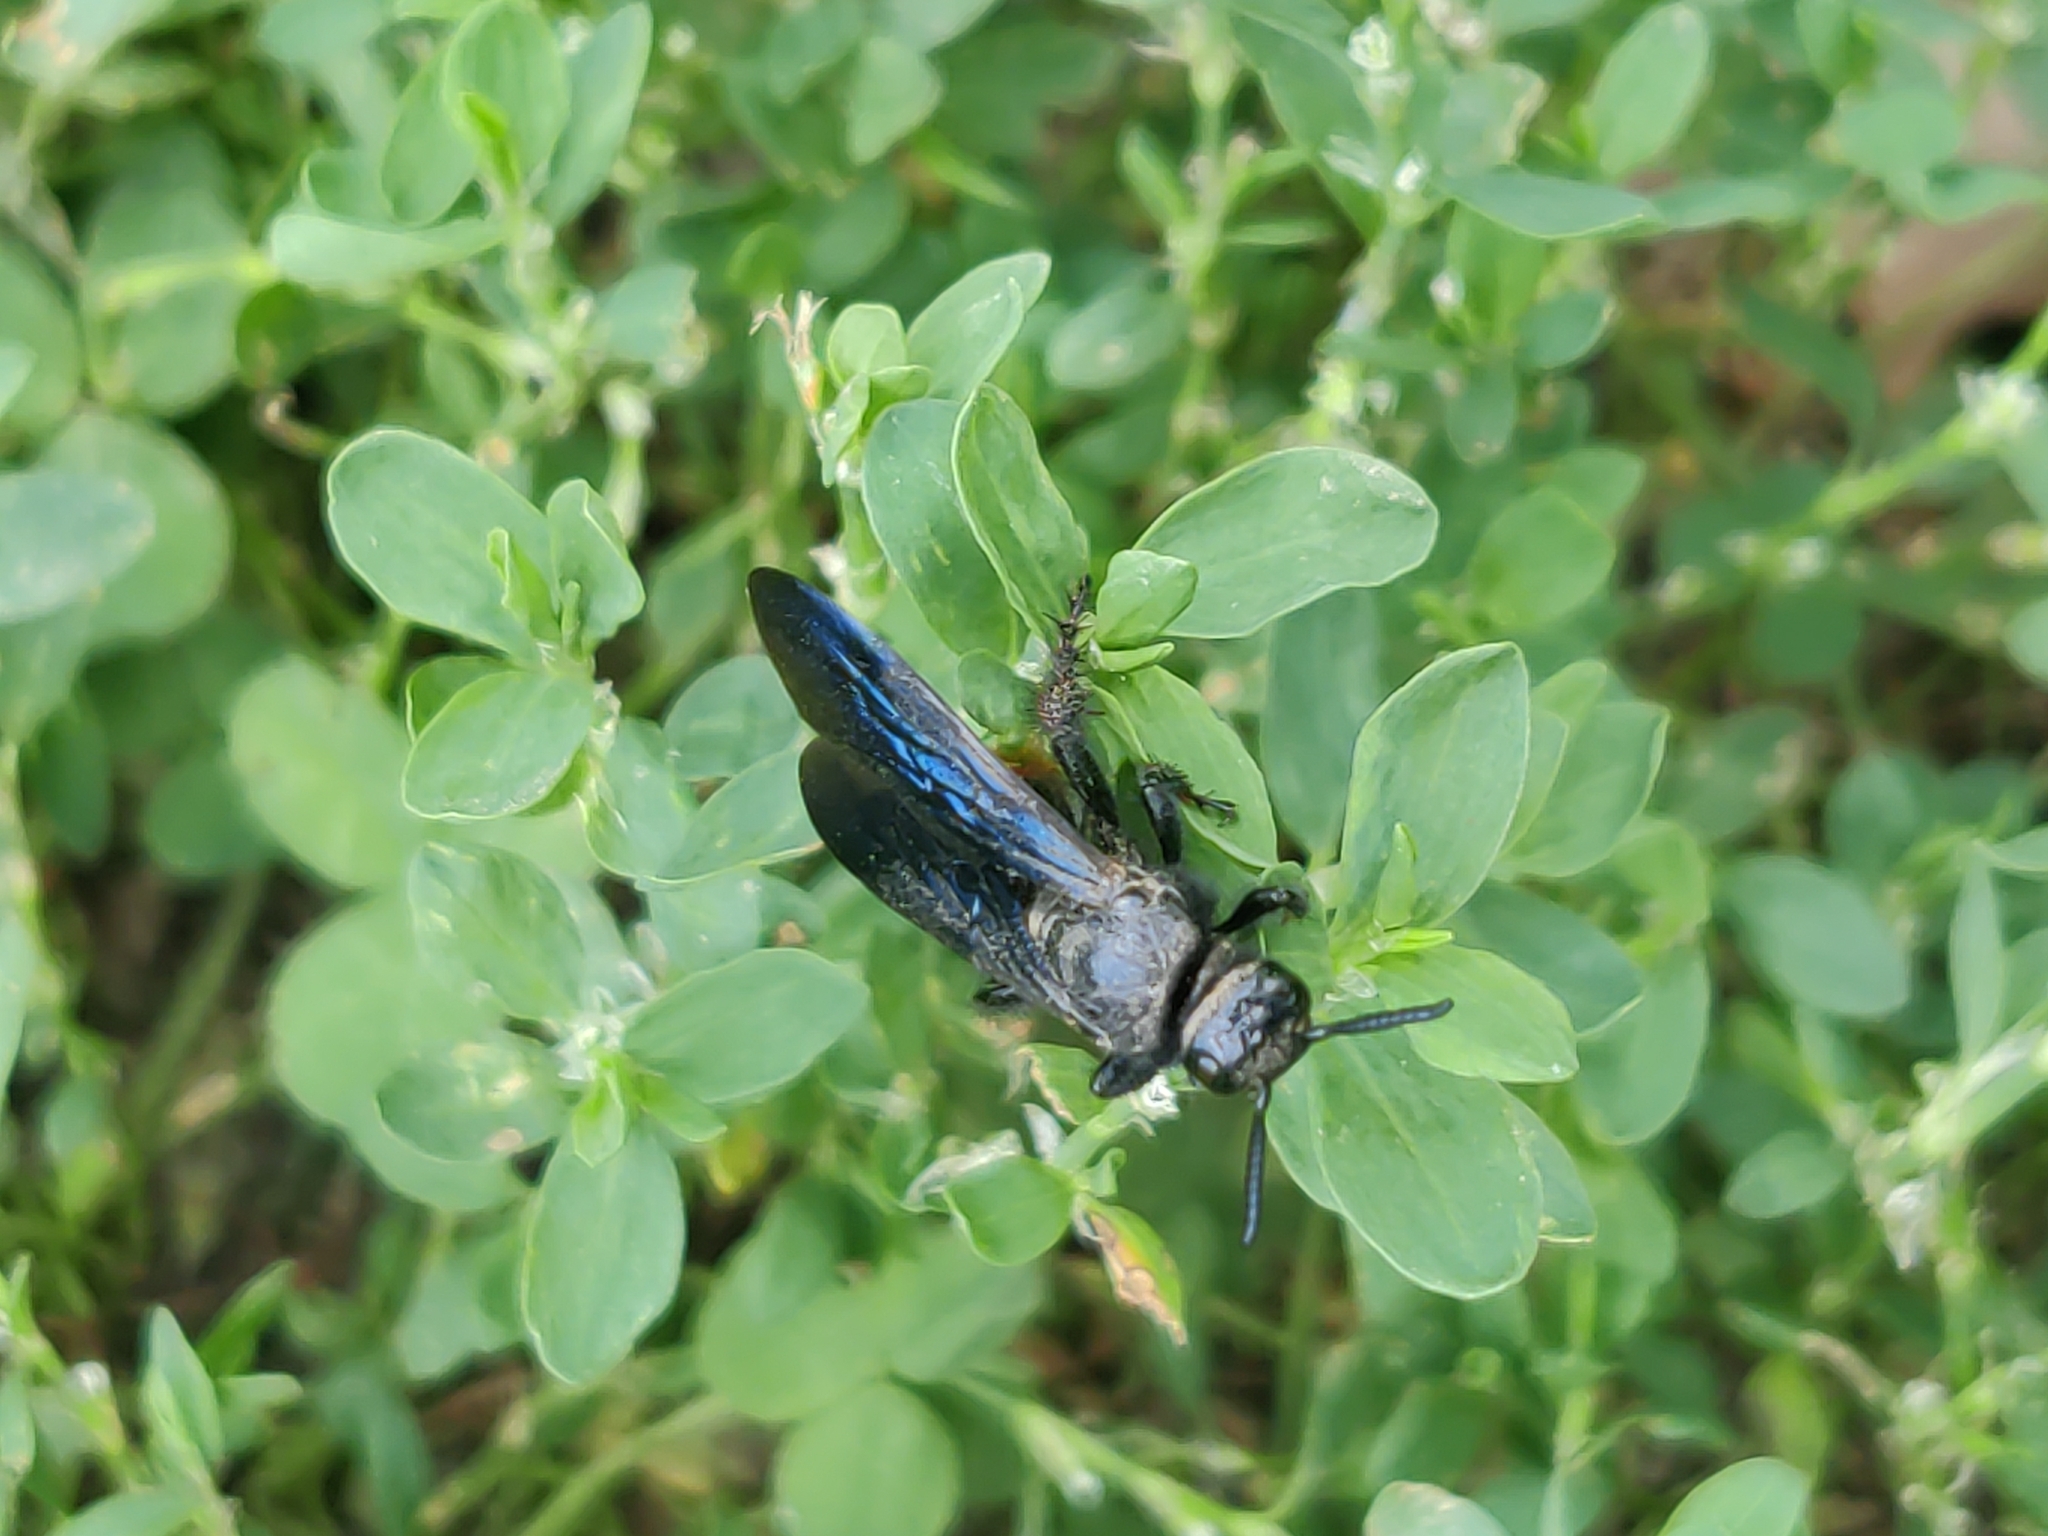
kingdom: Animalia
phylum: Arthropoda
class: Insecta
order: Hymenoptera
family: Scoliidae
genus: Scolia
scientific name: Scolia dubia
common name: Blue-winged scoliid wasp
